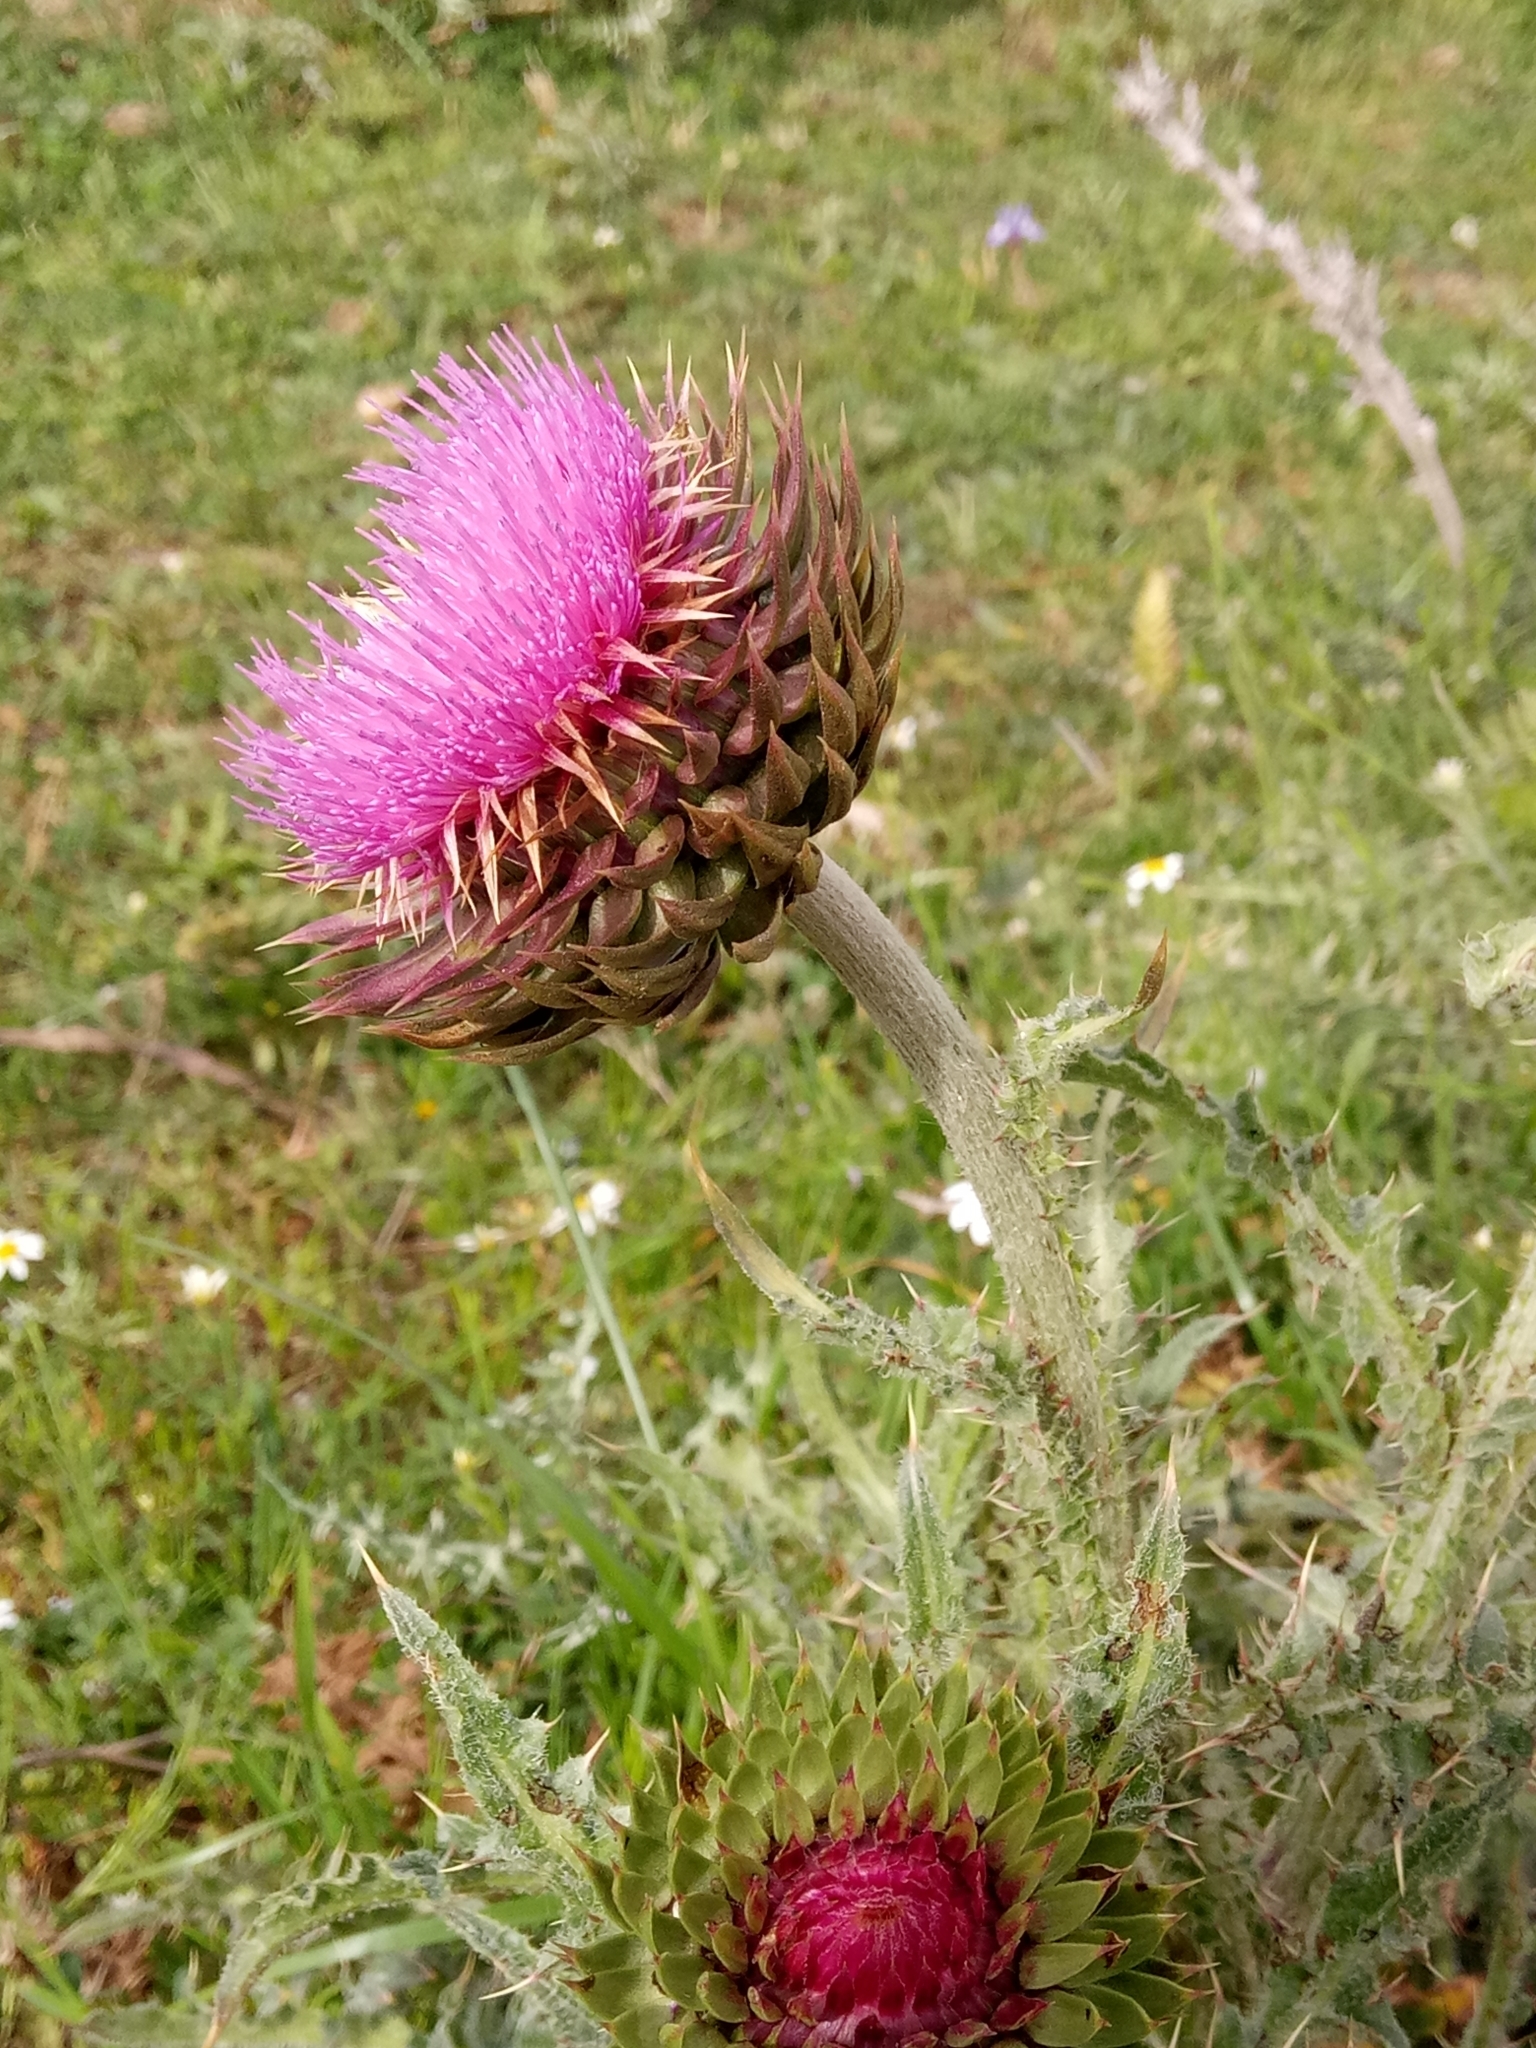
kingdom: Plantae
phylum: Tracheophyta
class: Magnoliopsida
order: Asterales
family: Asteraceae
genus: Carduus
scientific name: Carduus macrocephalus
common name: Giant thistle
